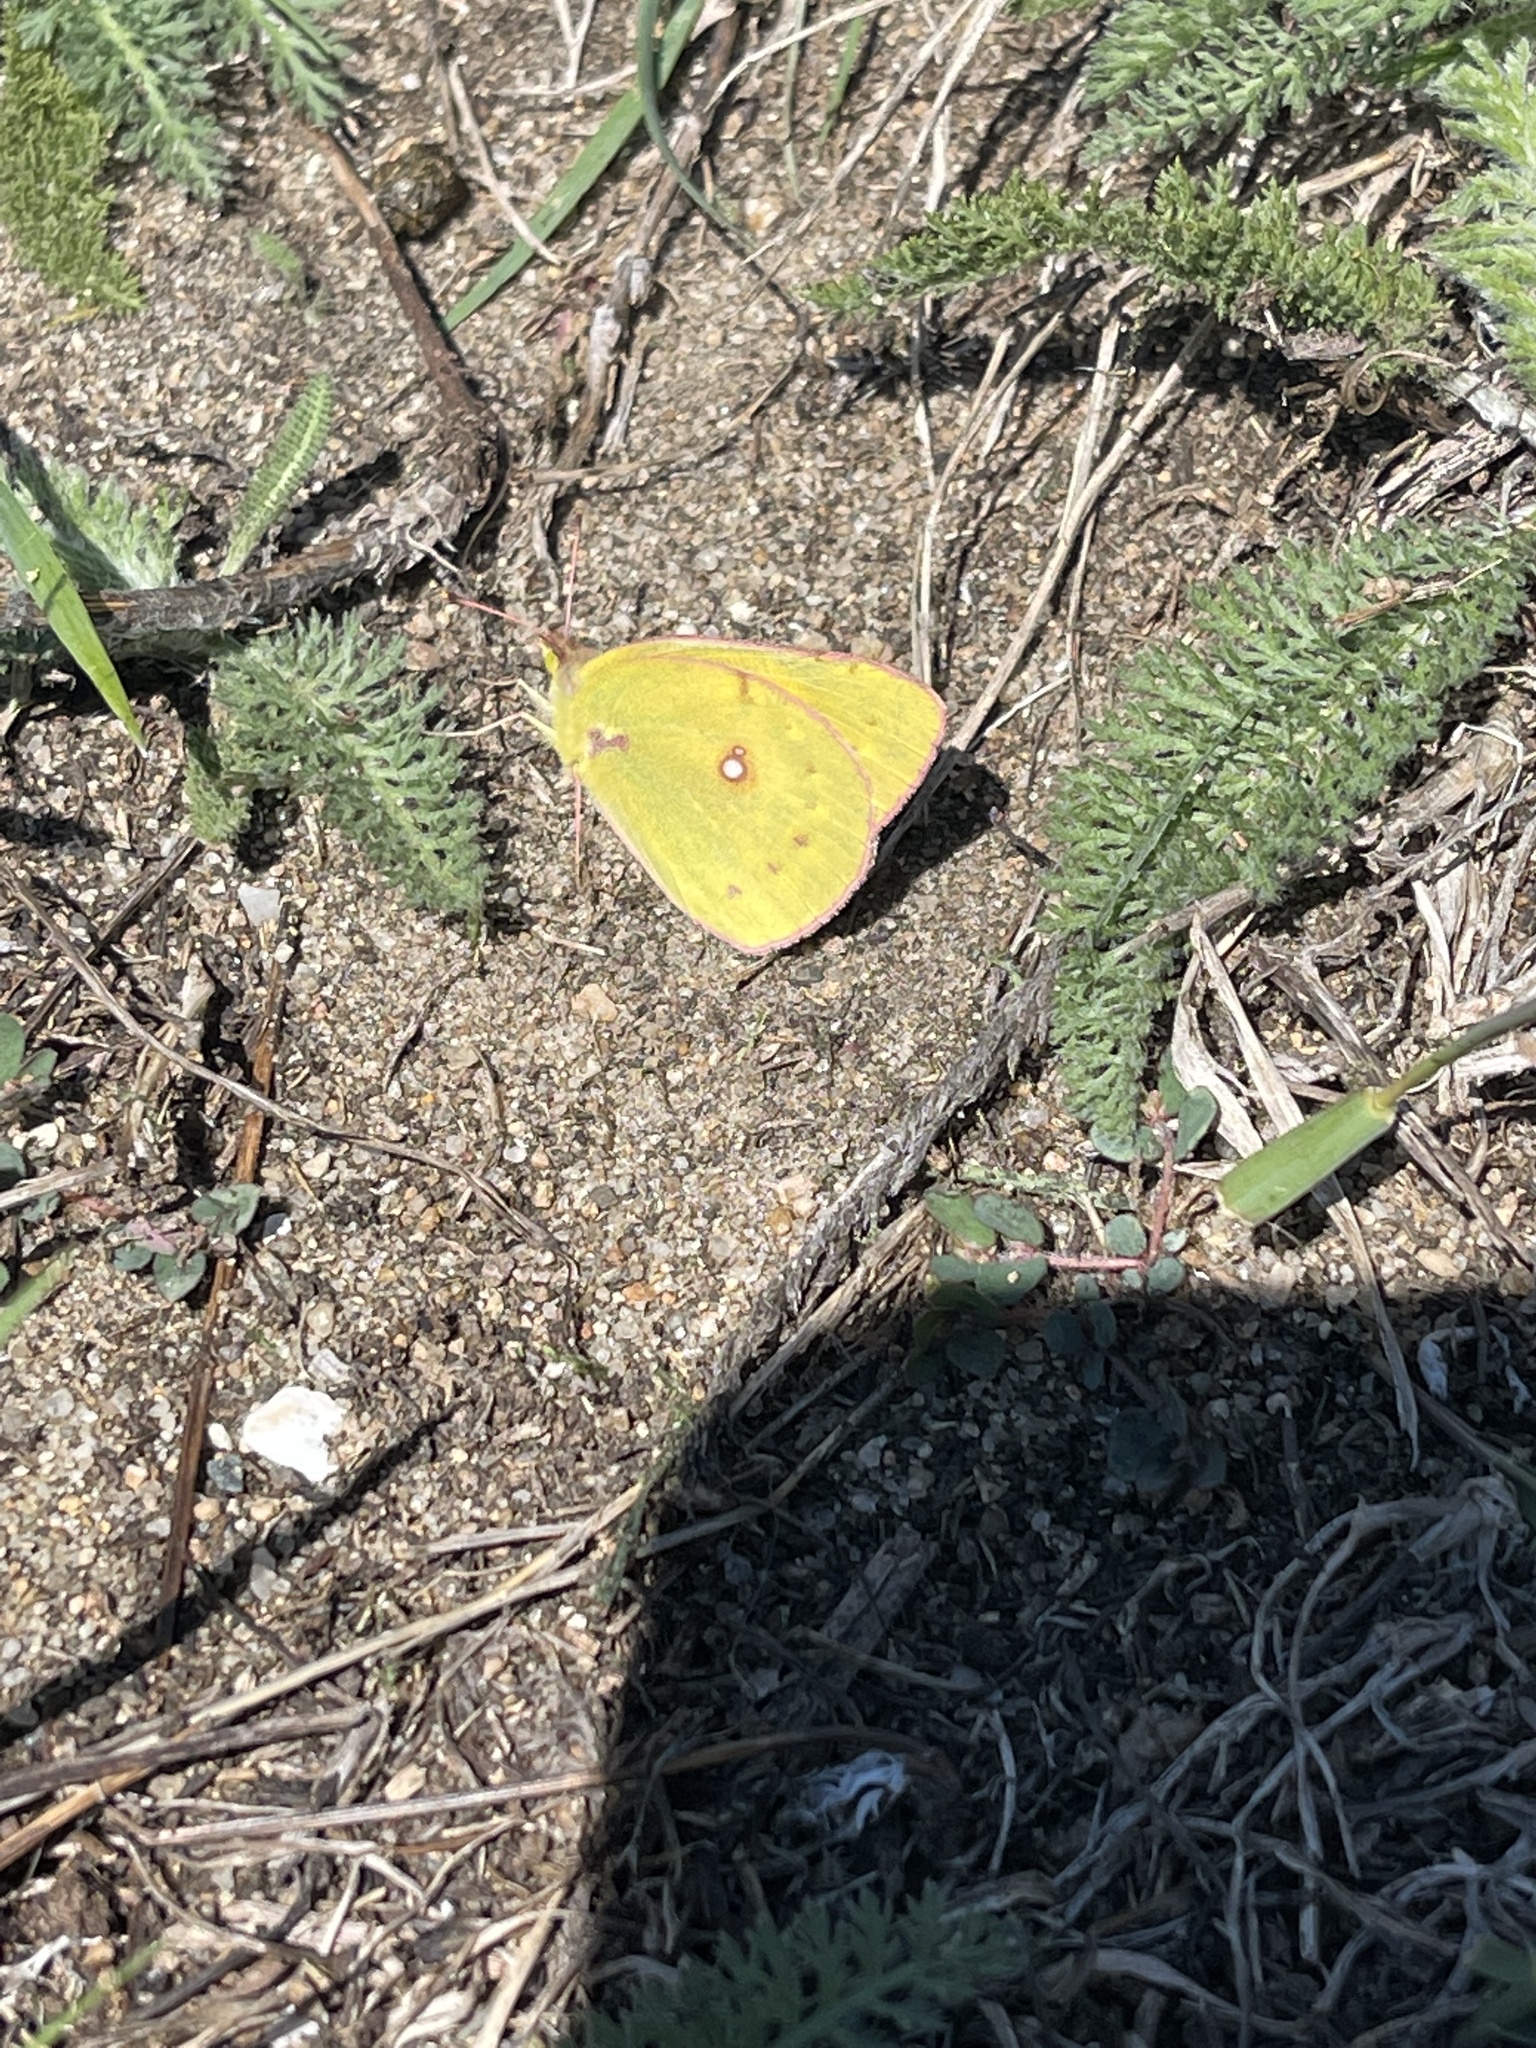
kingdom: Animalia
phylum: Arthropoda
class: Insecta
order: Lepidoptera
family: Pieridae
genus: Colias
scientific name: Colias eurytheme
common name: Alfalfa butterfly
